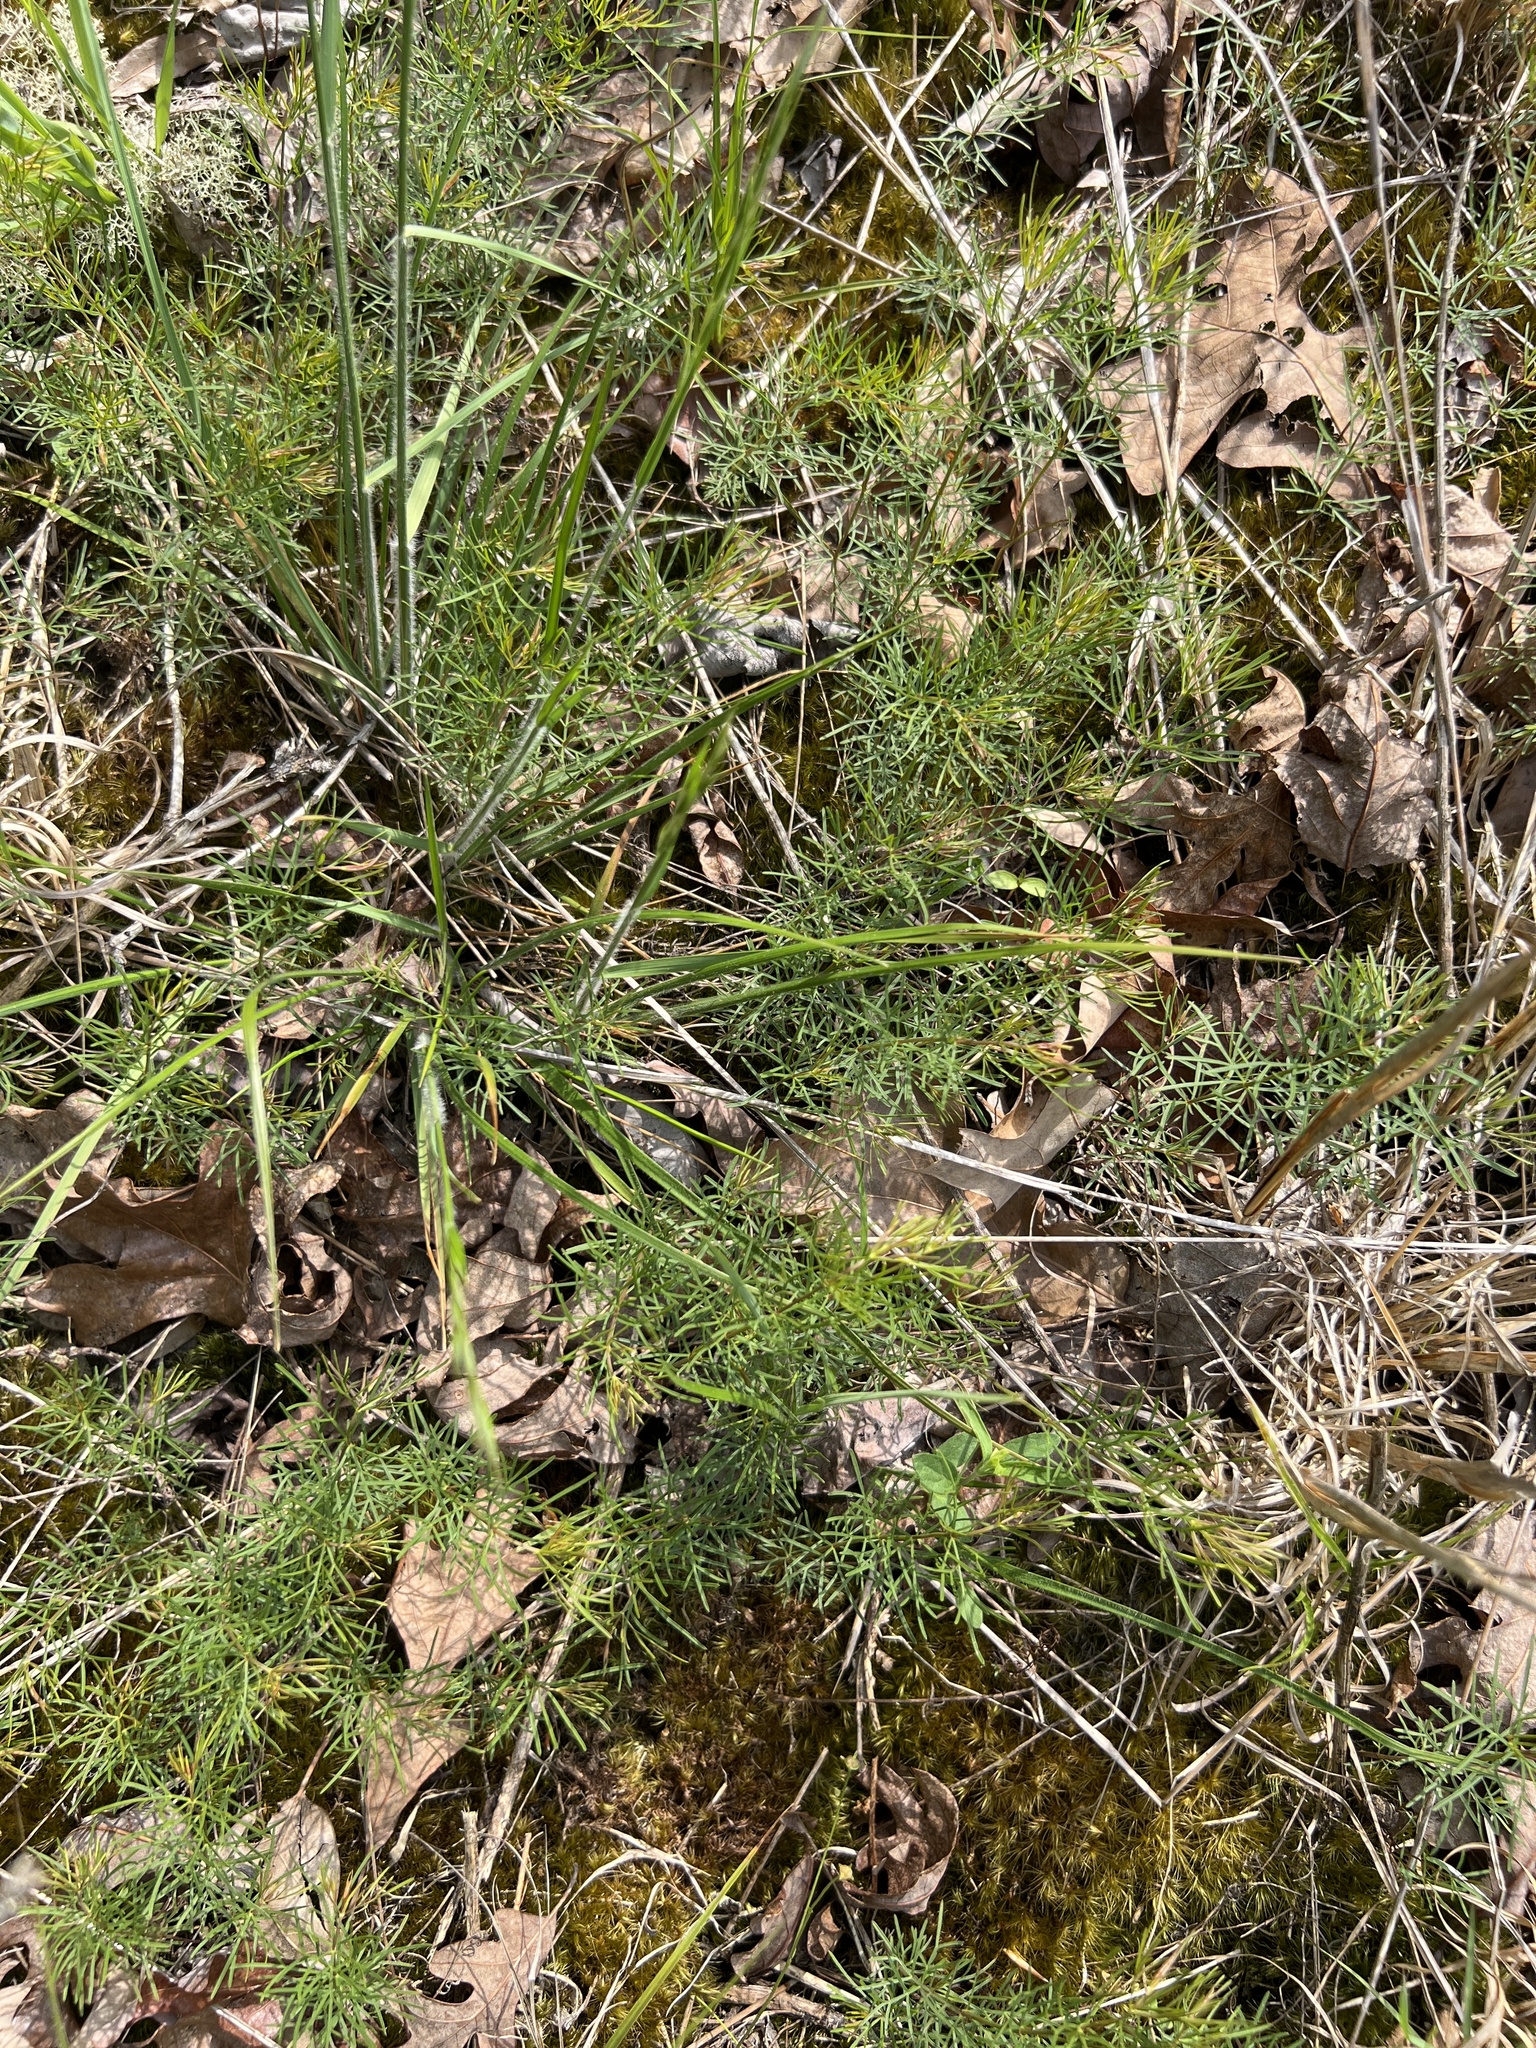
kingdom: Plantae
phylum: Tracheophyta
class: Magnoliopsida
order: Asterales
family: Asteraceae
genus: Coreopsis
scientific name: Coreopsis verticillata
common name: Whorled tickseed
